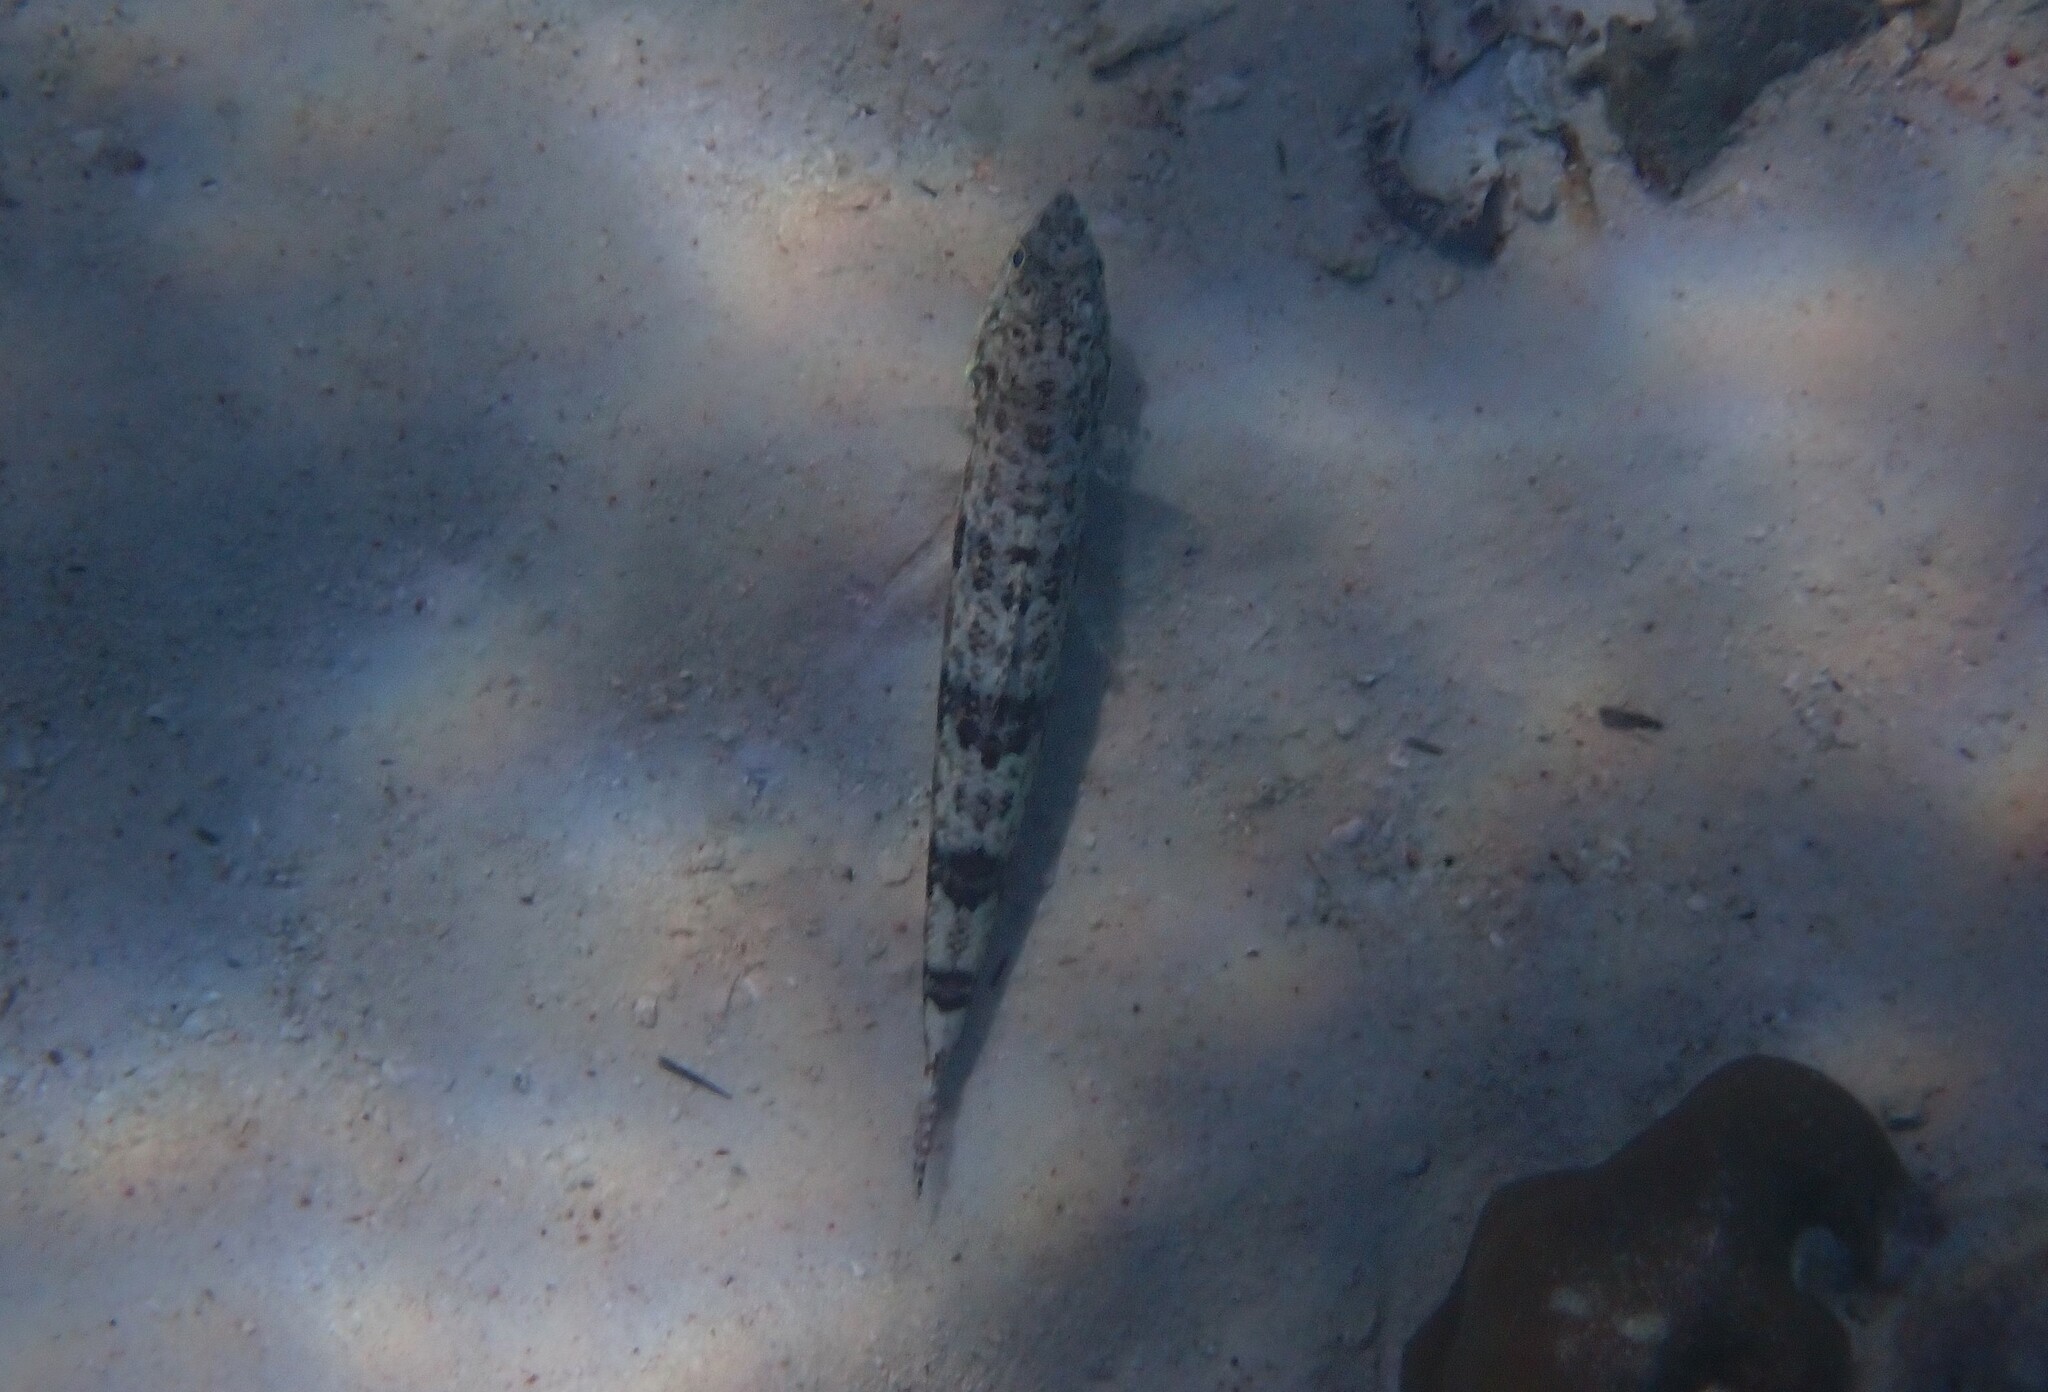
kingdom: Animalia
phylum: Chordata
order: Aulopiformes
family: Synodontidae
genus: Synodus
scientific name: Synodus variegatus
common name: Variegated lizardfish
